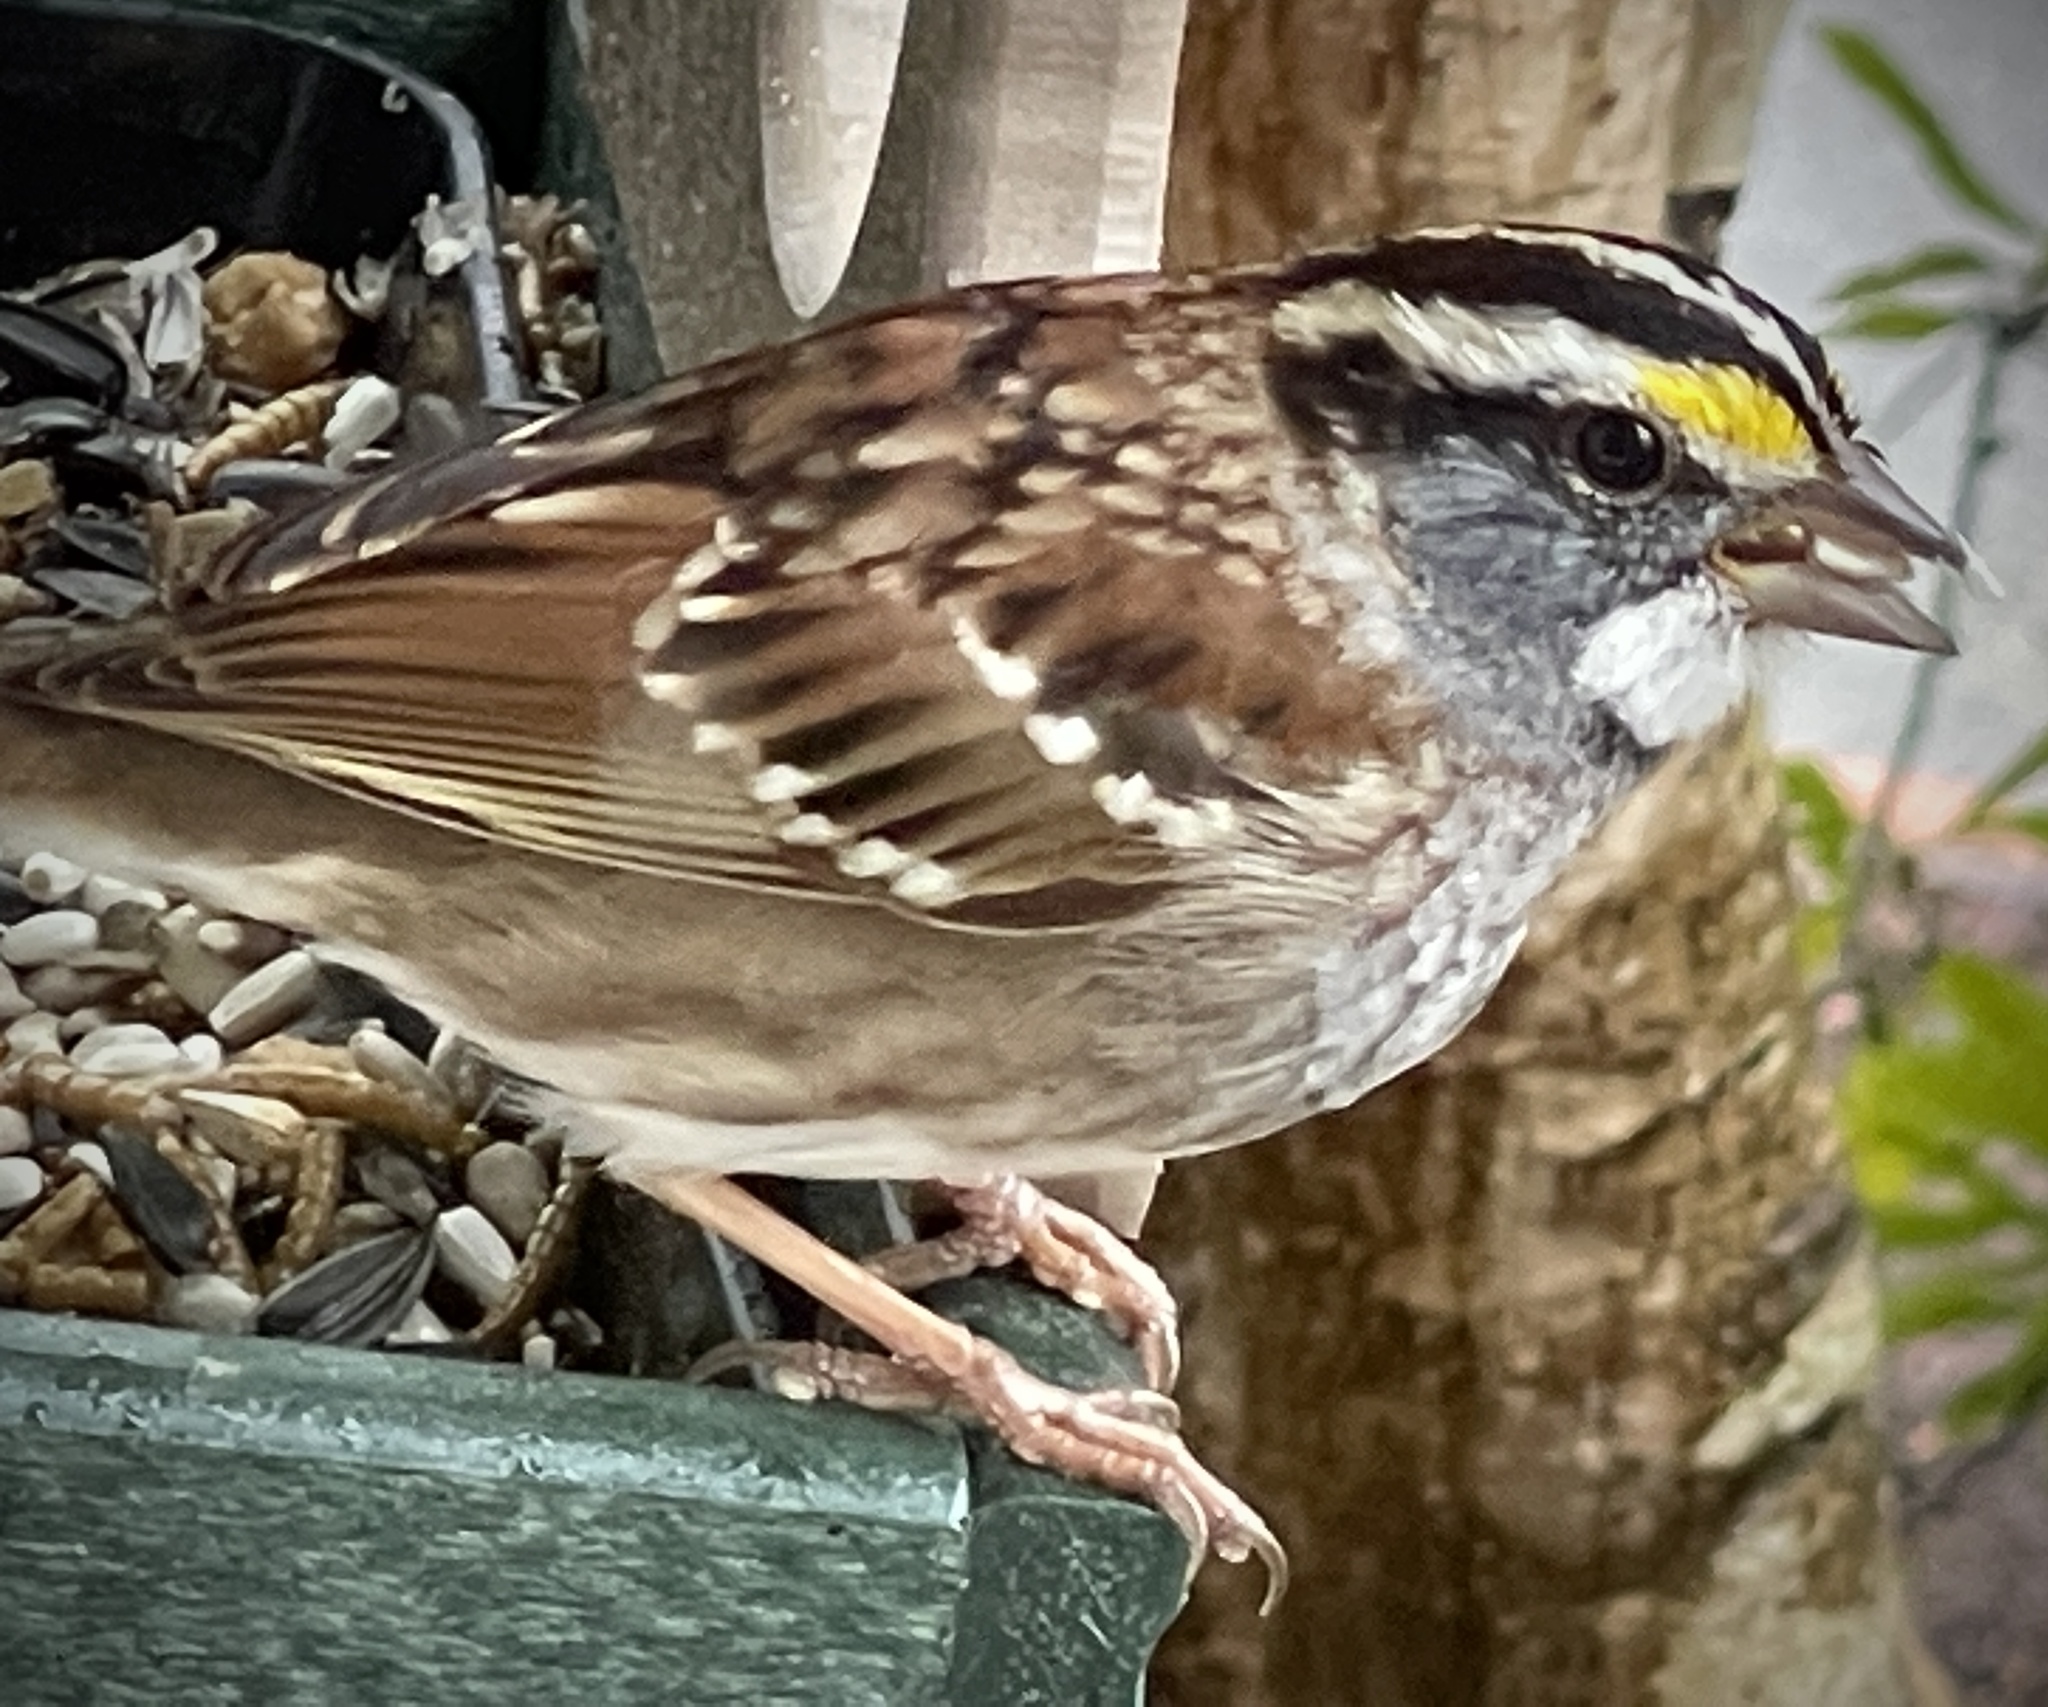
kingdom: Animalia
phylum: Chordata
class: Aves
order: Passeriformes
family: Passerellidae
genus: Zonotrichia
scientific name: Zonotrichia albicollis
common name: White-throated sparrow
